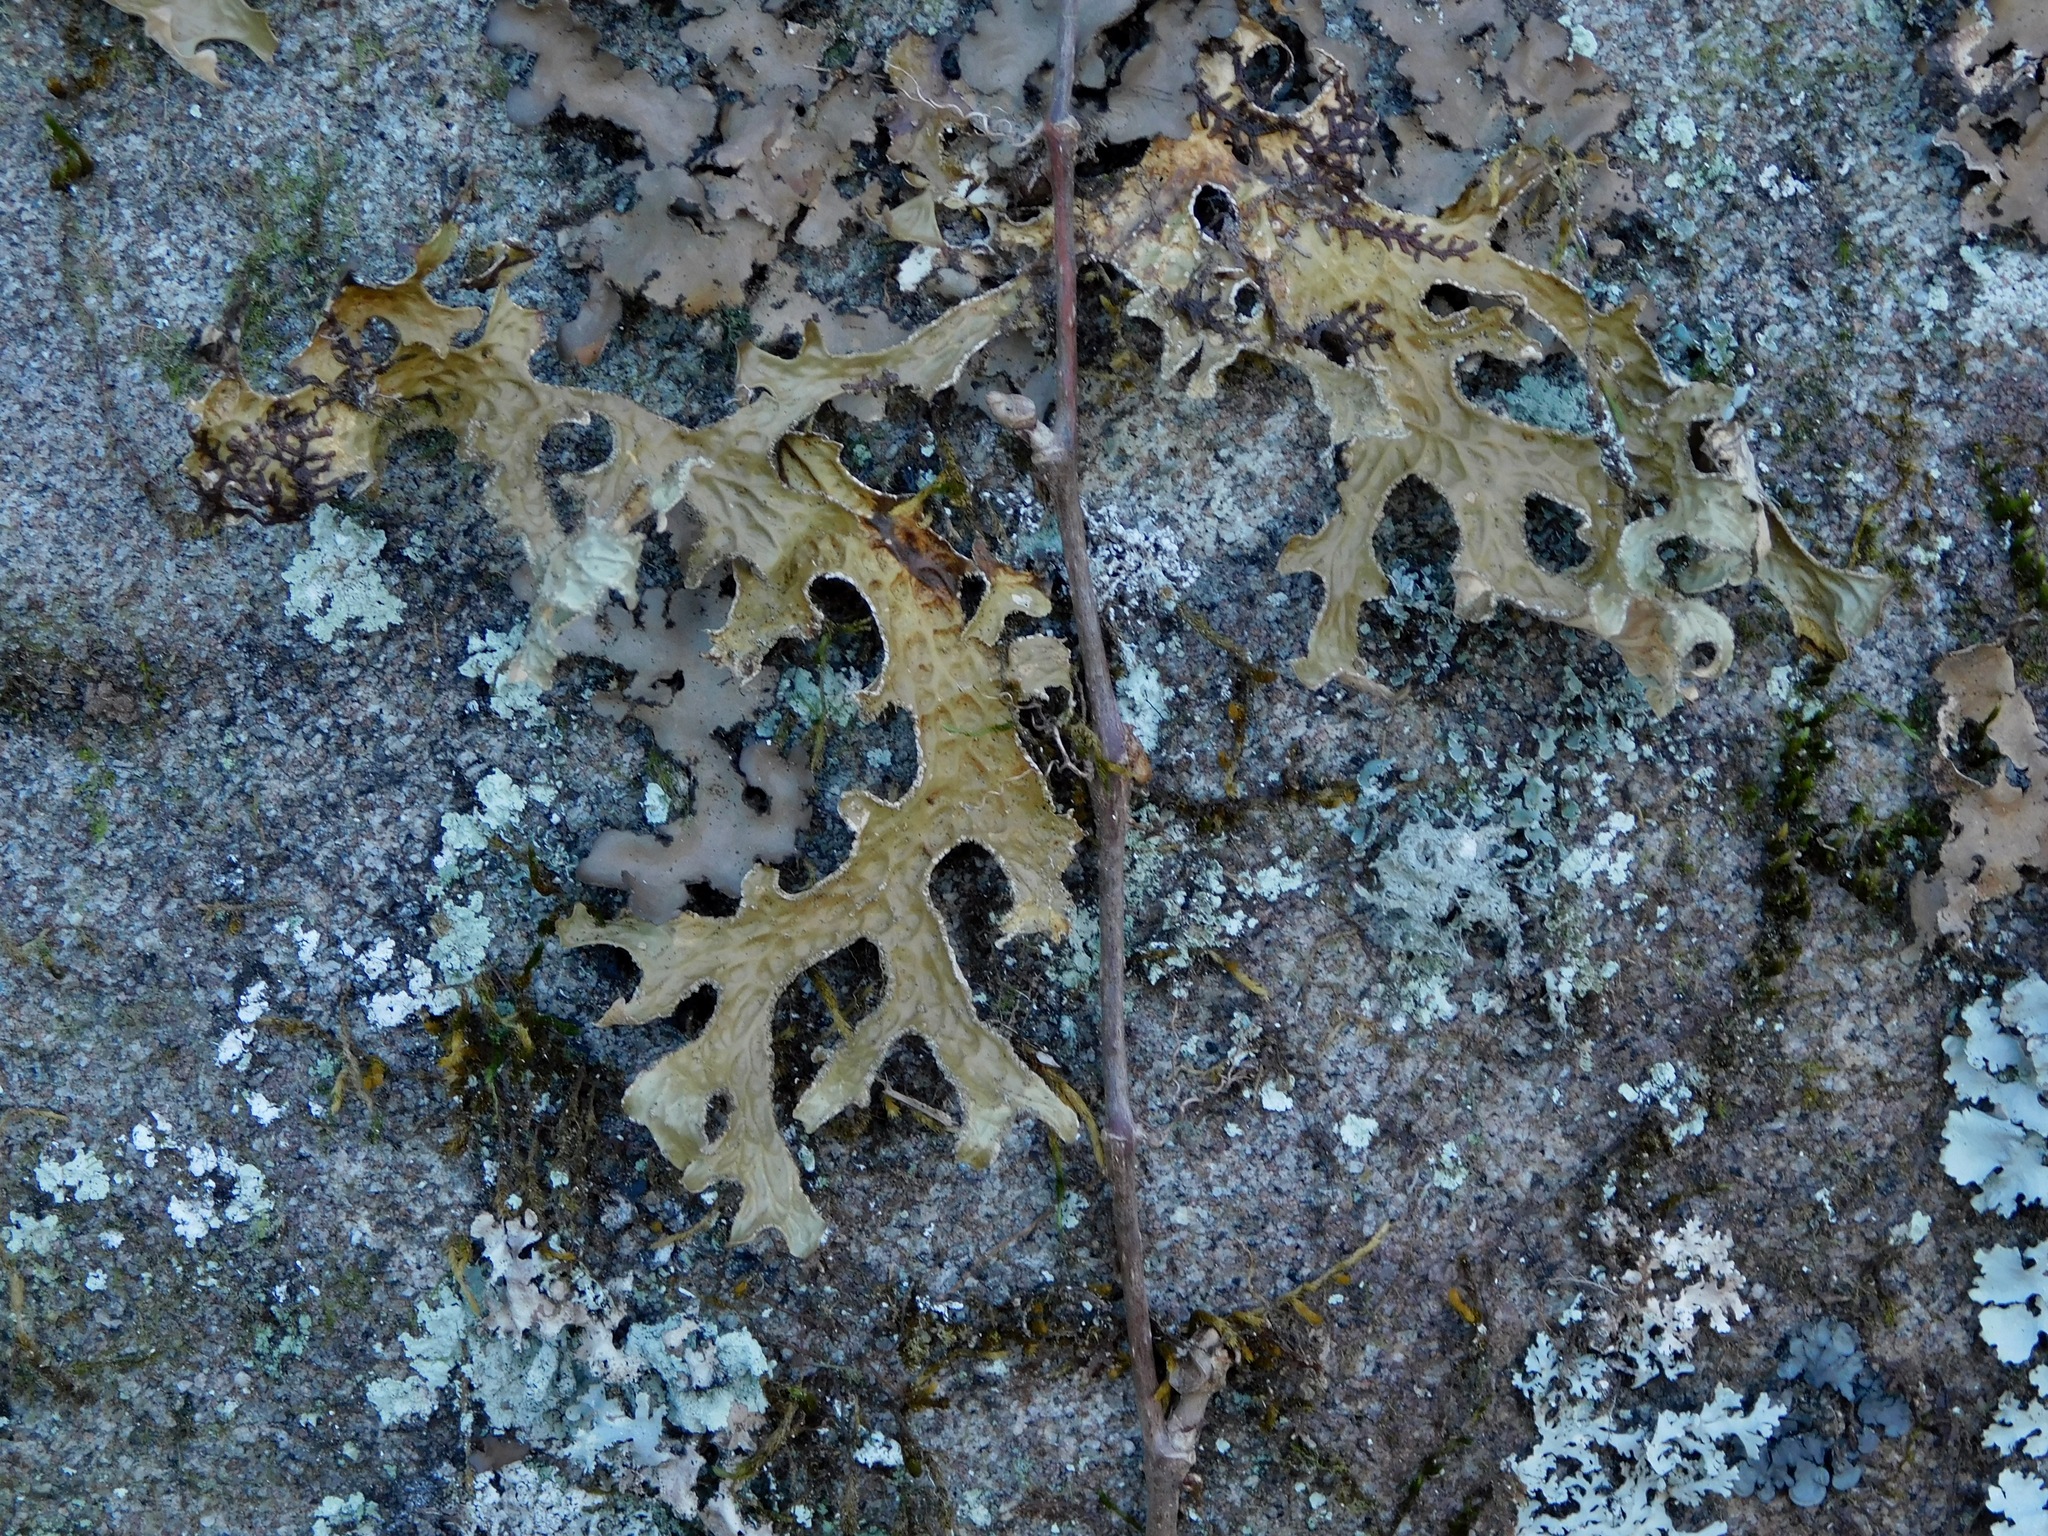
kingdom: Fungi
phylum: Ascomycota
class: Lecanoromycetes
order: Peltigerales
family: Lobariaceae
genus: Lobaria
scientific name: Lobaria pulmonaria
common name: Lungwort
